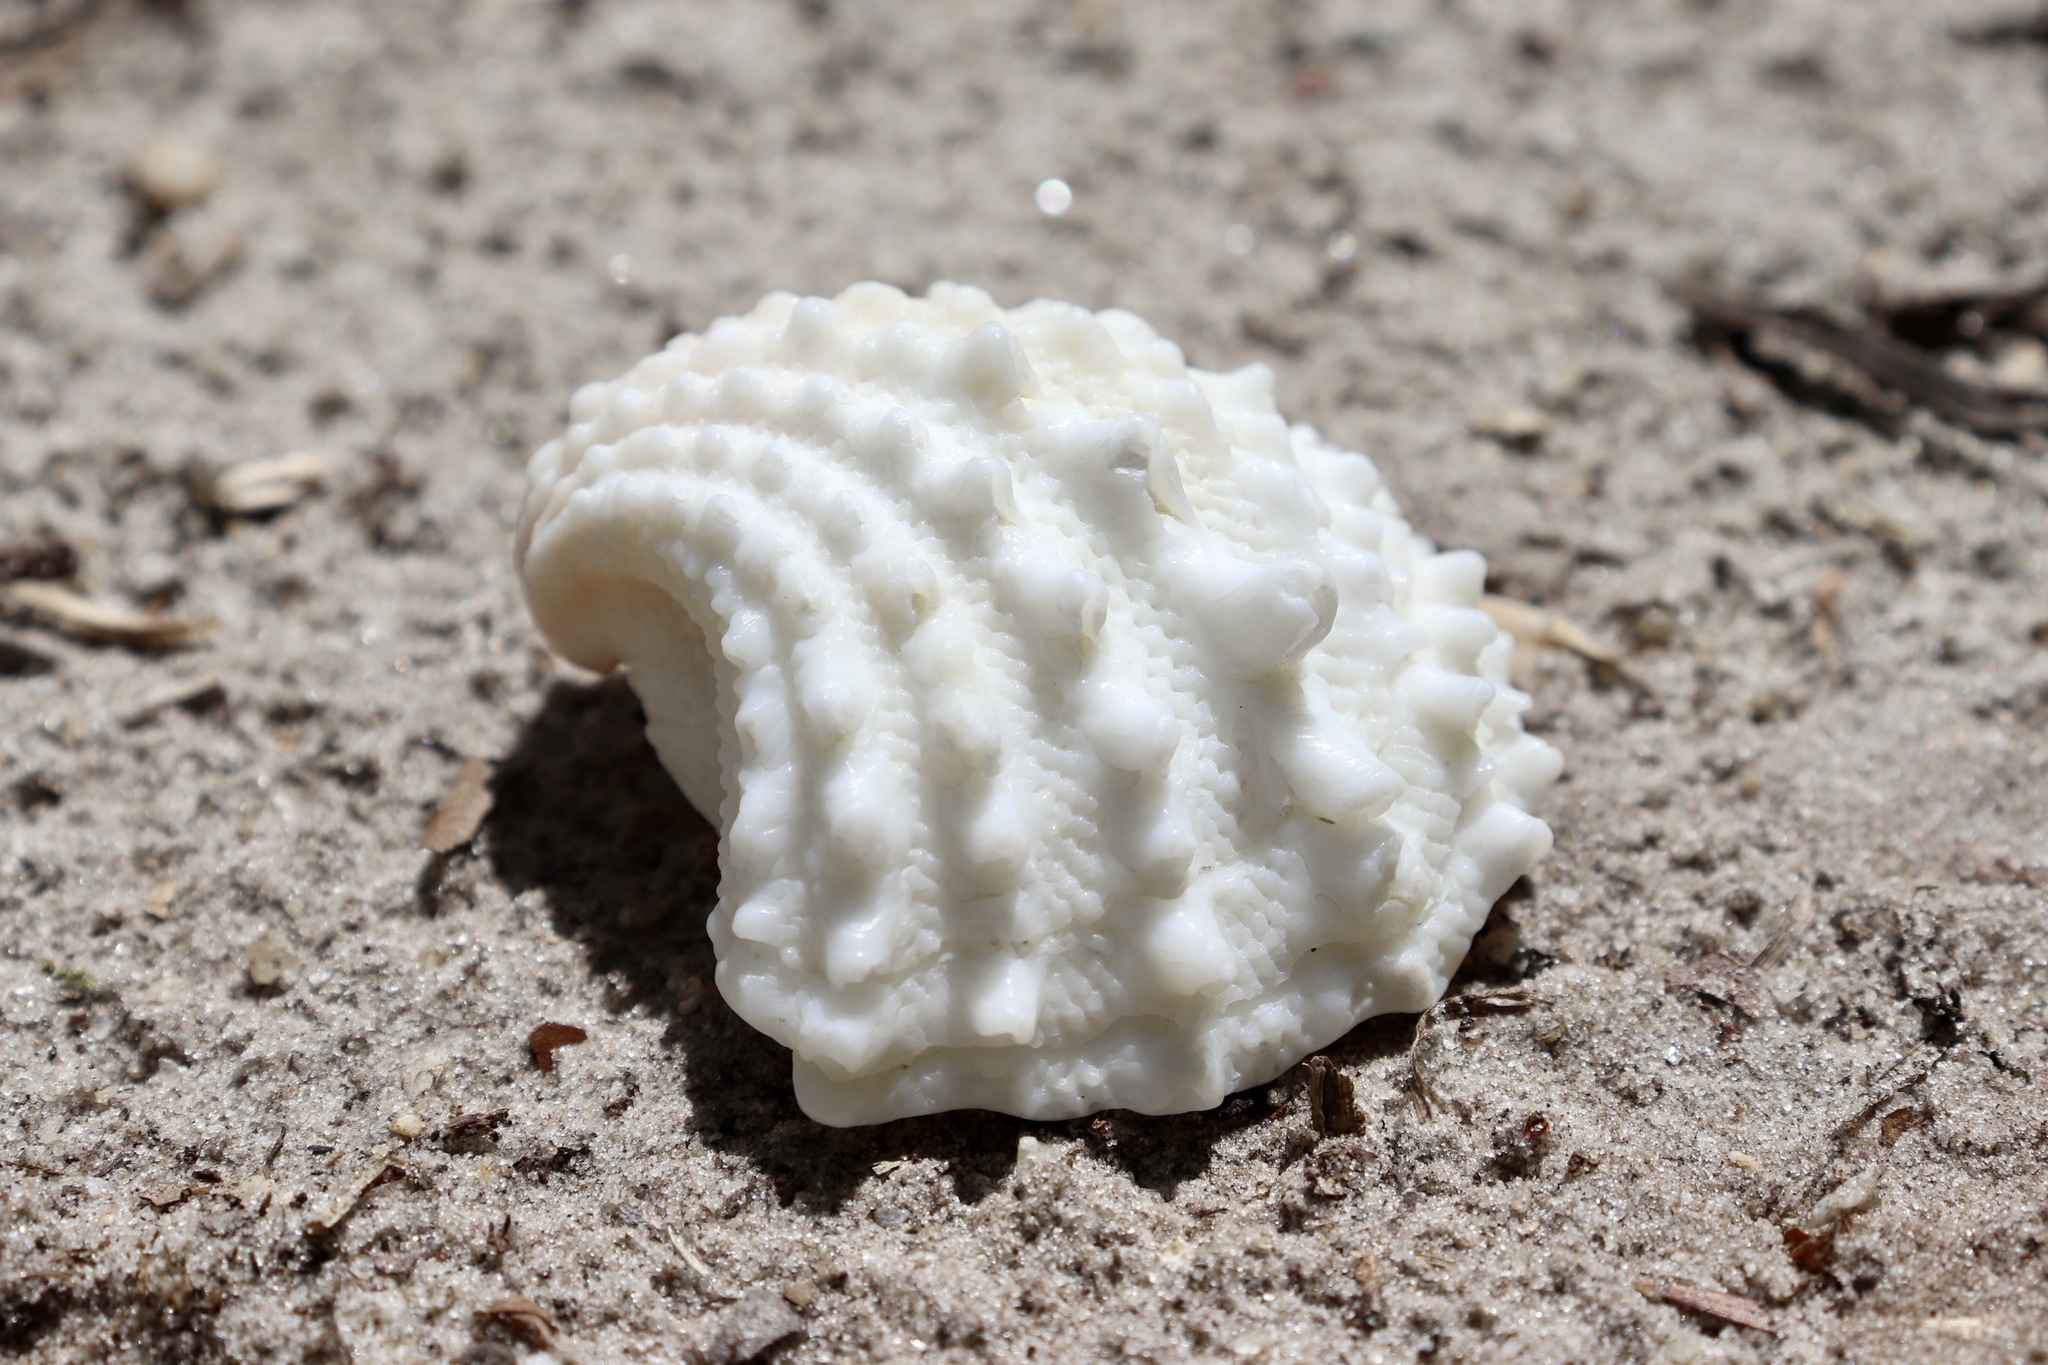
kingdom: Animalia
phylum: Mollusca
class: Bivalvia
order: Venerida
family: Chamidae
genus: Arcinella
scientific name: Arcinella cornuta
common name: Florida spiny jewel box
